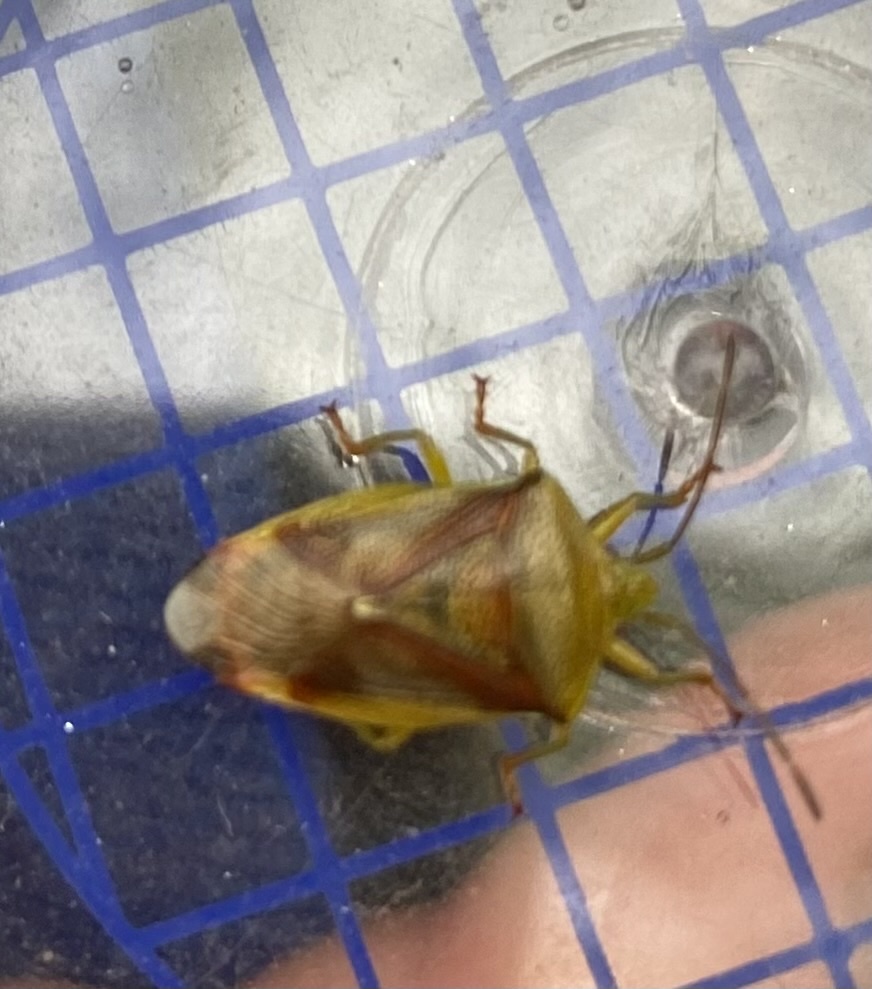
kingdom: Animalia
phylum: Arthropoda
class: Insecta
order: Hemiptera
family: Acanthosomatidae
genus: Elasmostethus
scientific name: Elasmostethus interstinctus
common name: Birch shieldbug
